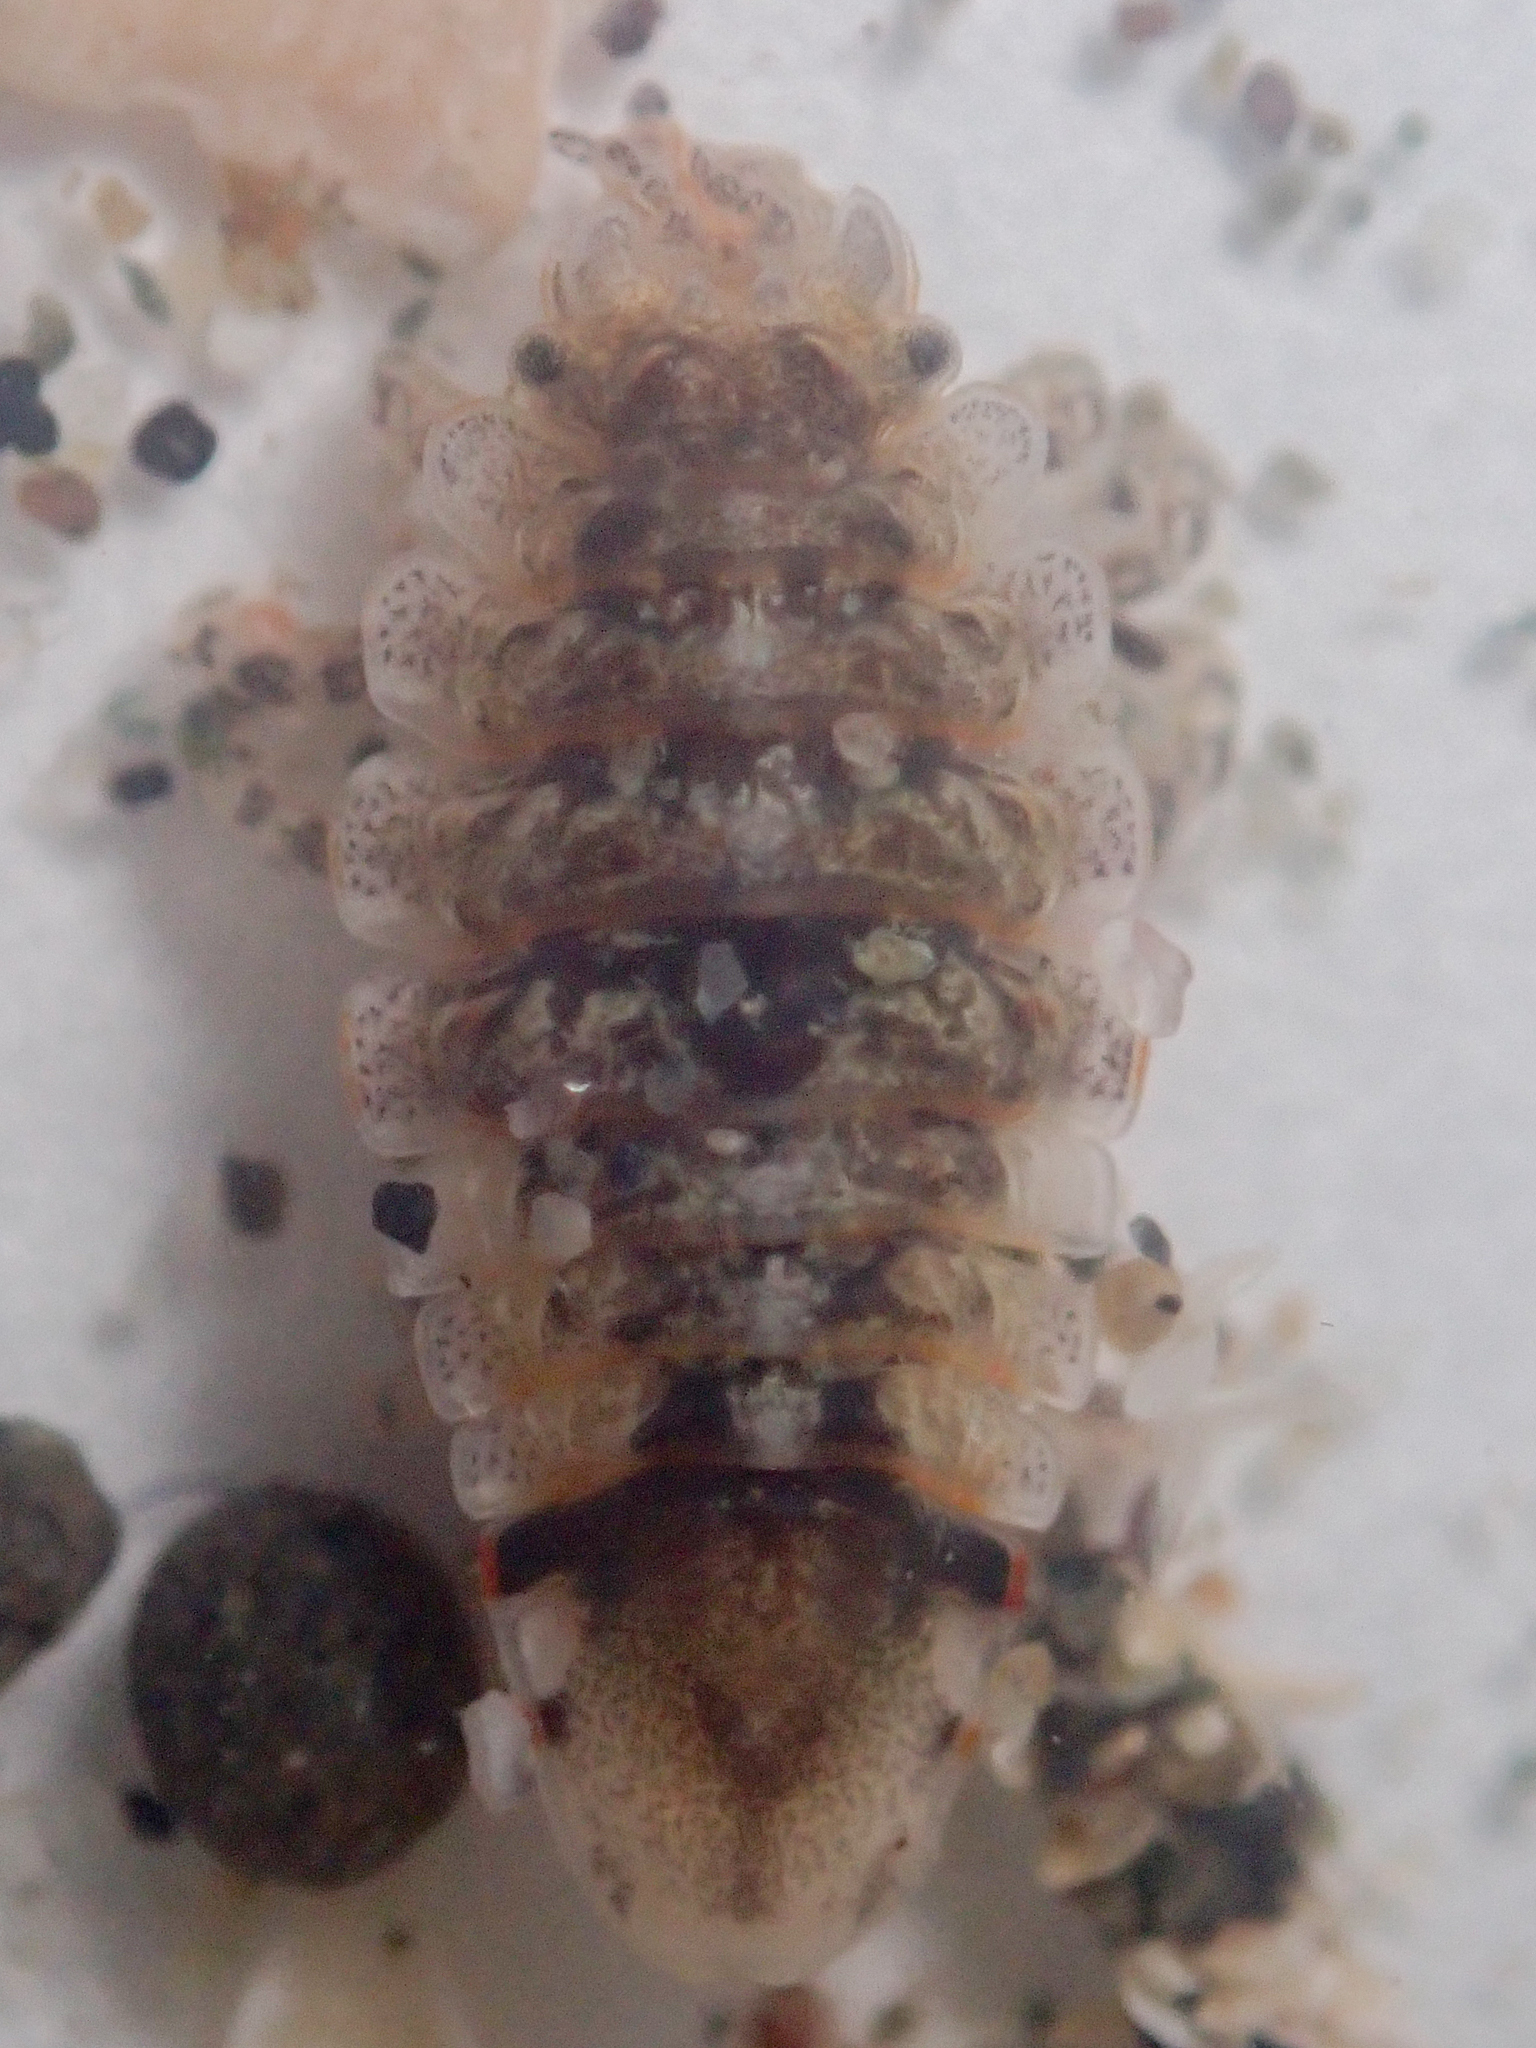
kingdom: Animalia
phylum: Arthropoda
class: Malacostraca
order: Isopoda
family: Idoteidae
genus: Synidotea
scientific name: Synidotea ritteri
